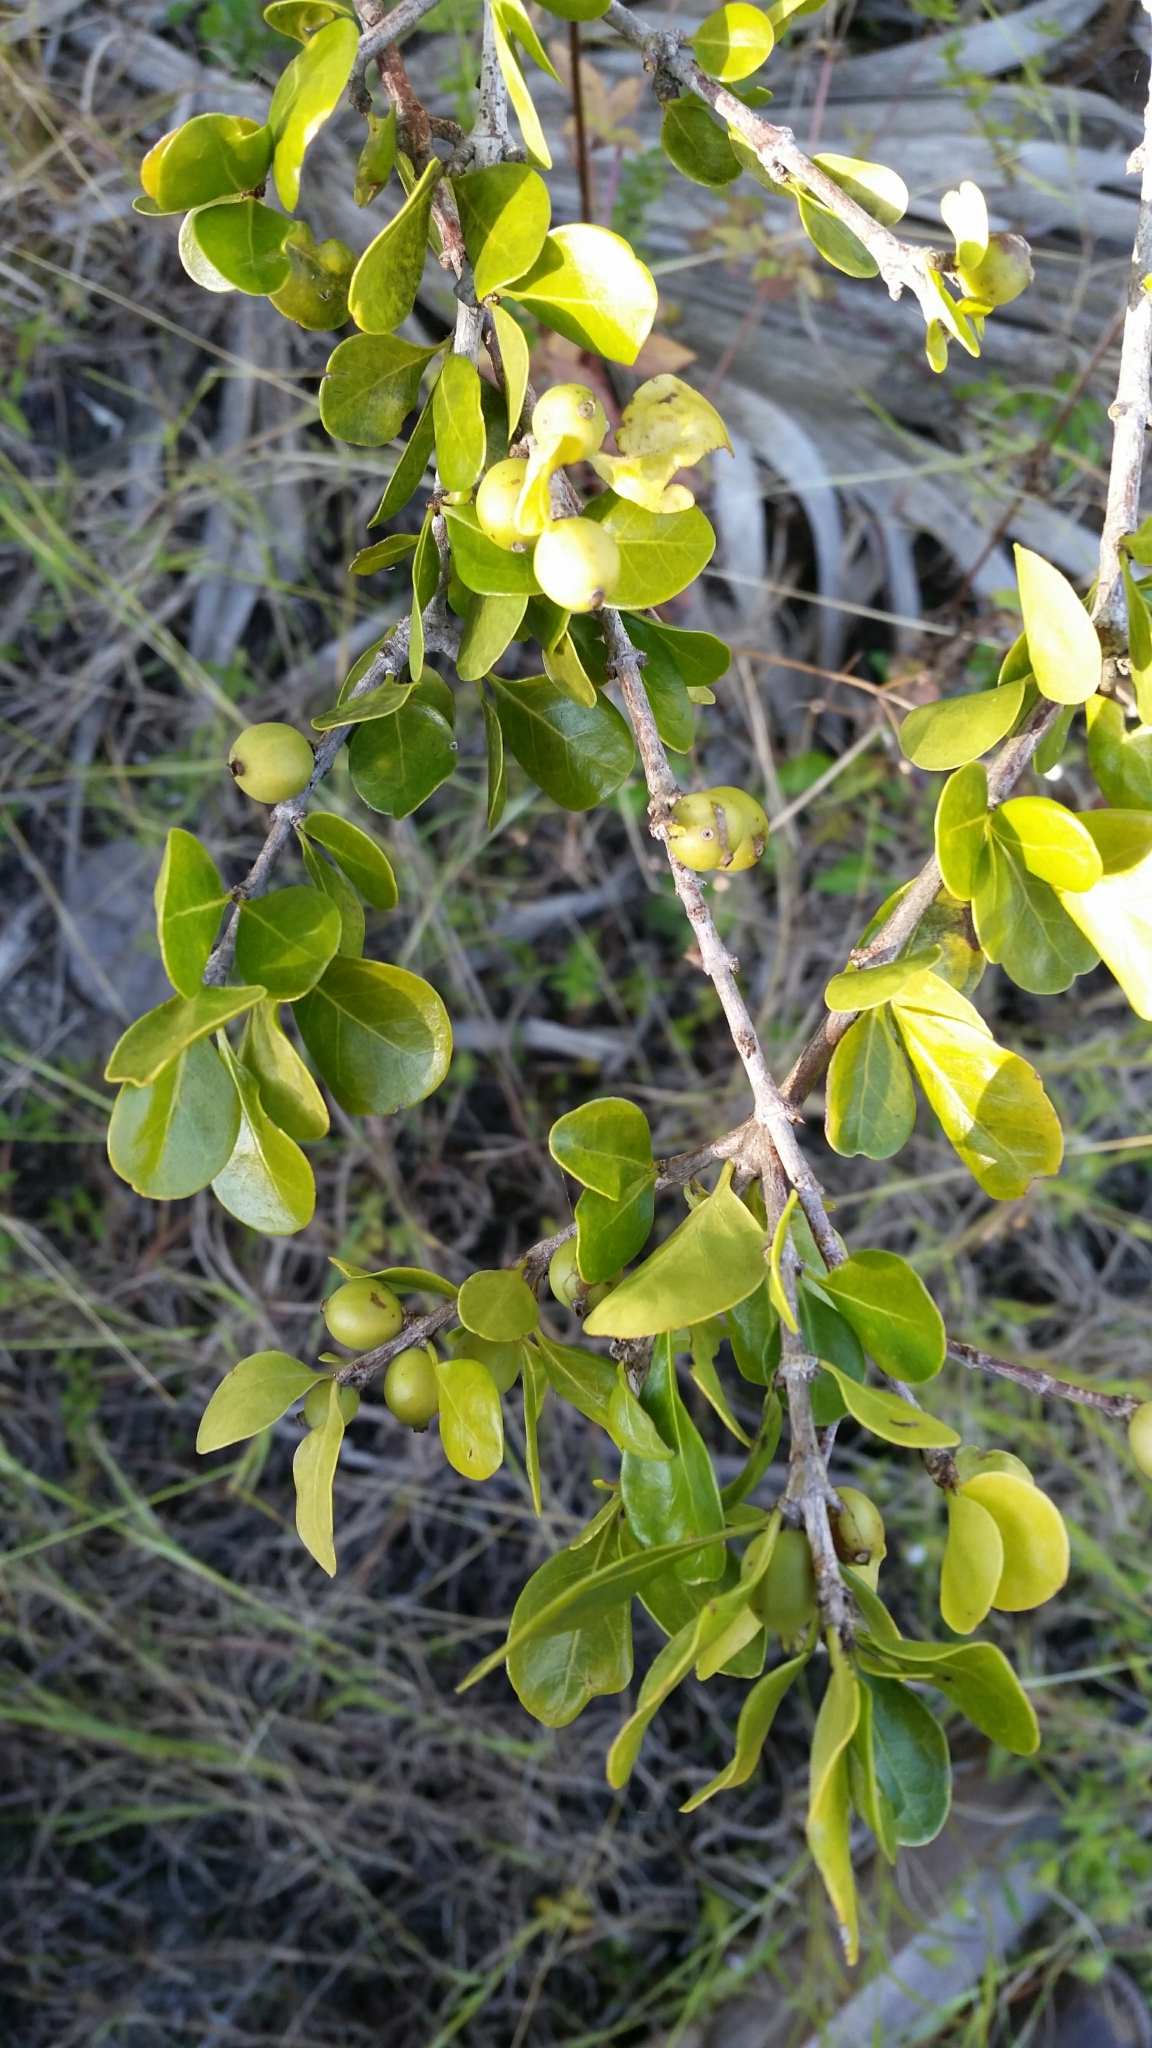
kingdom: Plantae
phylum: Tracheophyta
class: Magnoliopsida
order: Gentianales
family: Rubiaceae
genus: Randia
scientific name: Randia aculeata
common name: Inkberry
